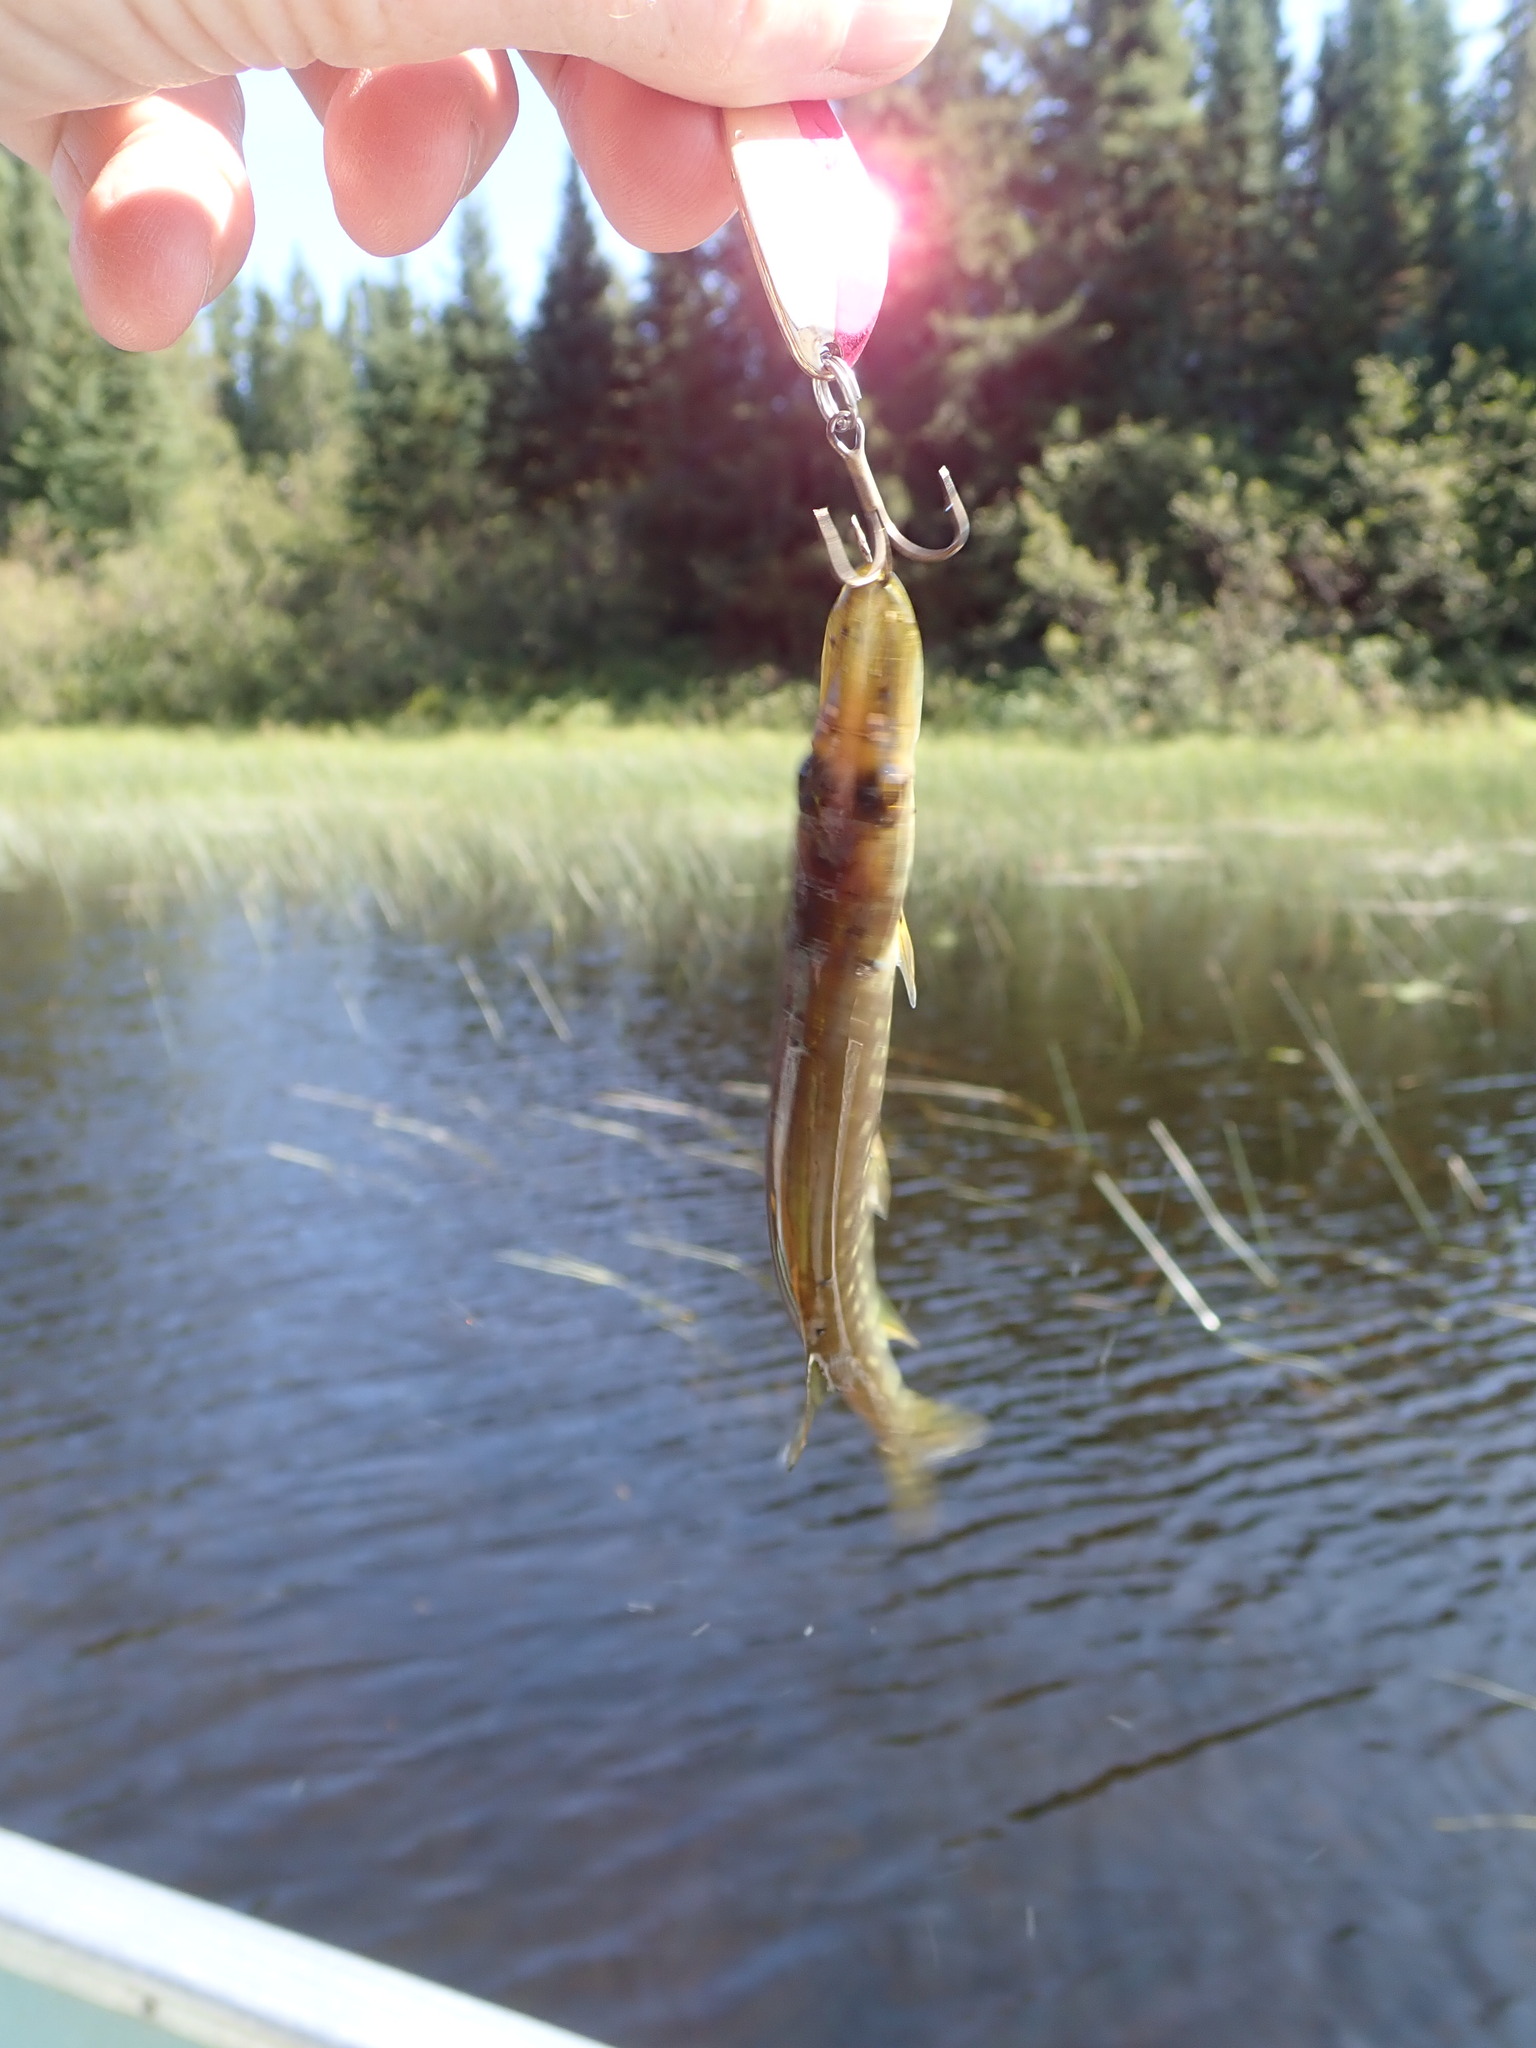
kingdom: Animalia
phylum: Chordata
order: Esociformes
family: Esocidae
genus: Esox
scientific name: Esox lucius
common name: Northern pike
